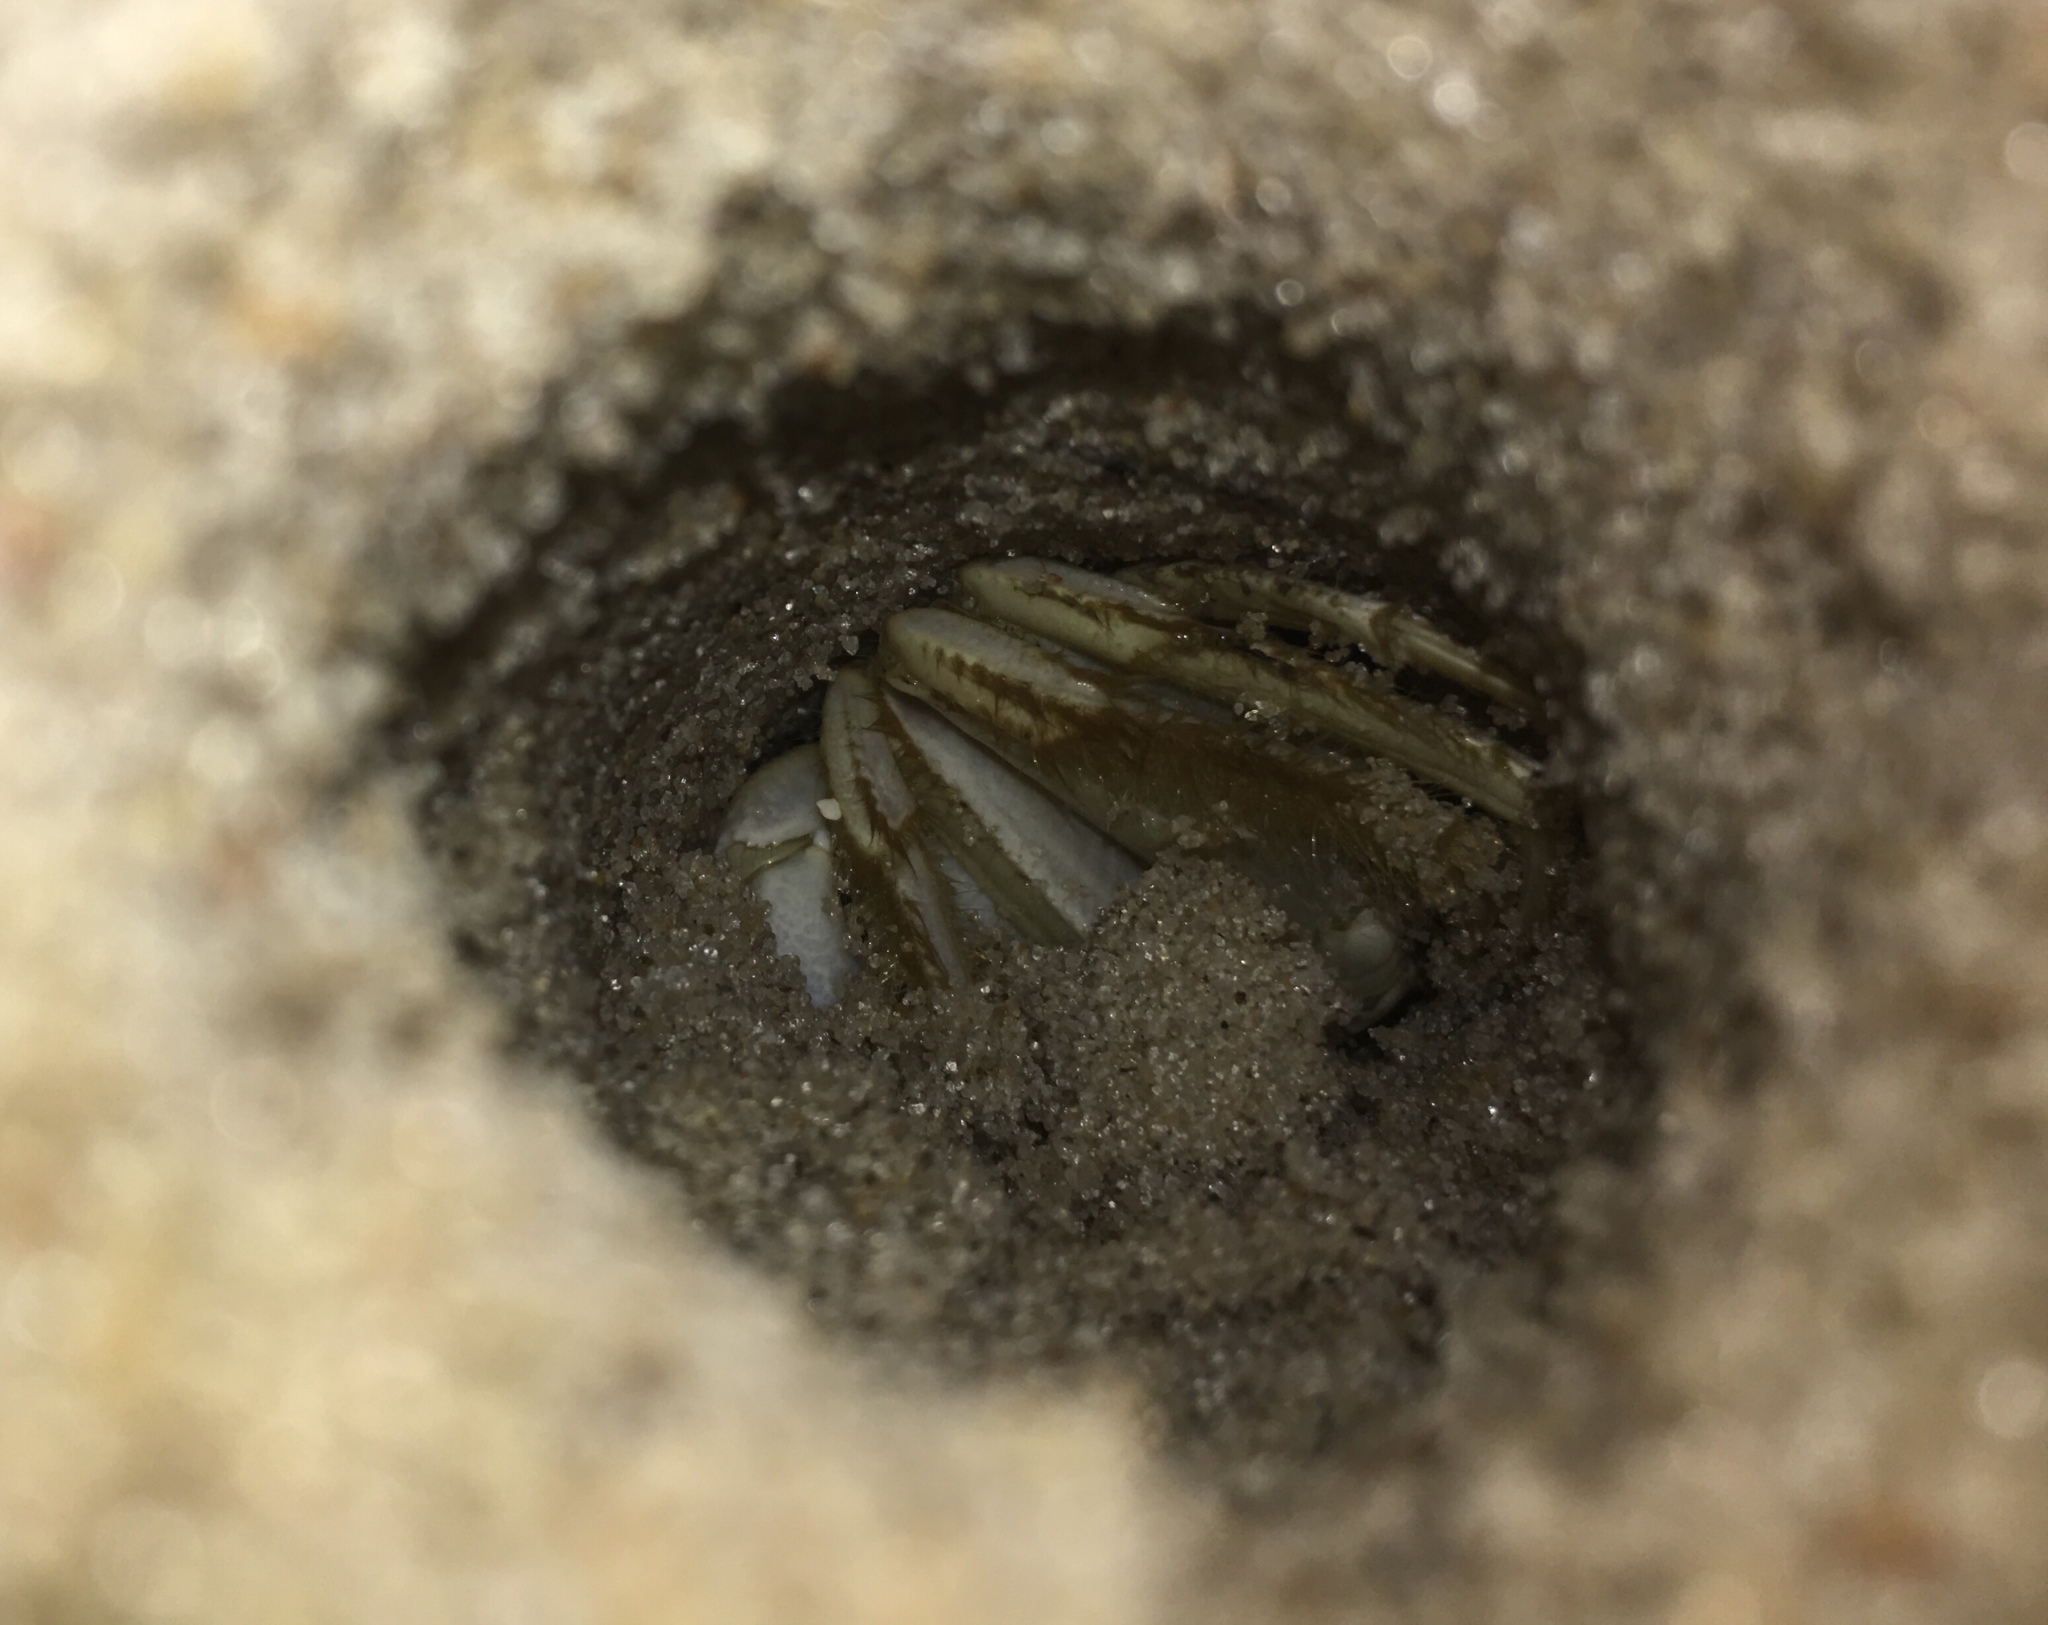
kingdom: Animalia
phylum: Arthropoda
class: Malacostraca
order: Decapoda
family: Ocypodidae
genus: Ocypode
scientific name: Ocypode quadrata
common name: Ghost crab
